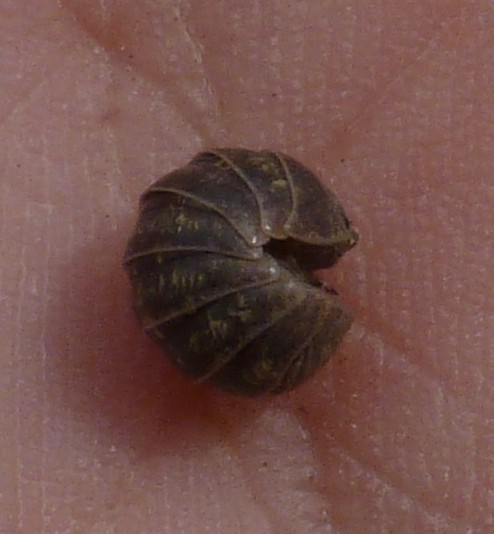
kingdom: Animalia
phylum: Arthropoda
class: Malacostraca
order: Isopoda
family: Armadillidiidae
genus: Armadillidium
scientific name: Armadillidium vulgare
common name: Common pill woodlouse
